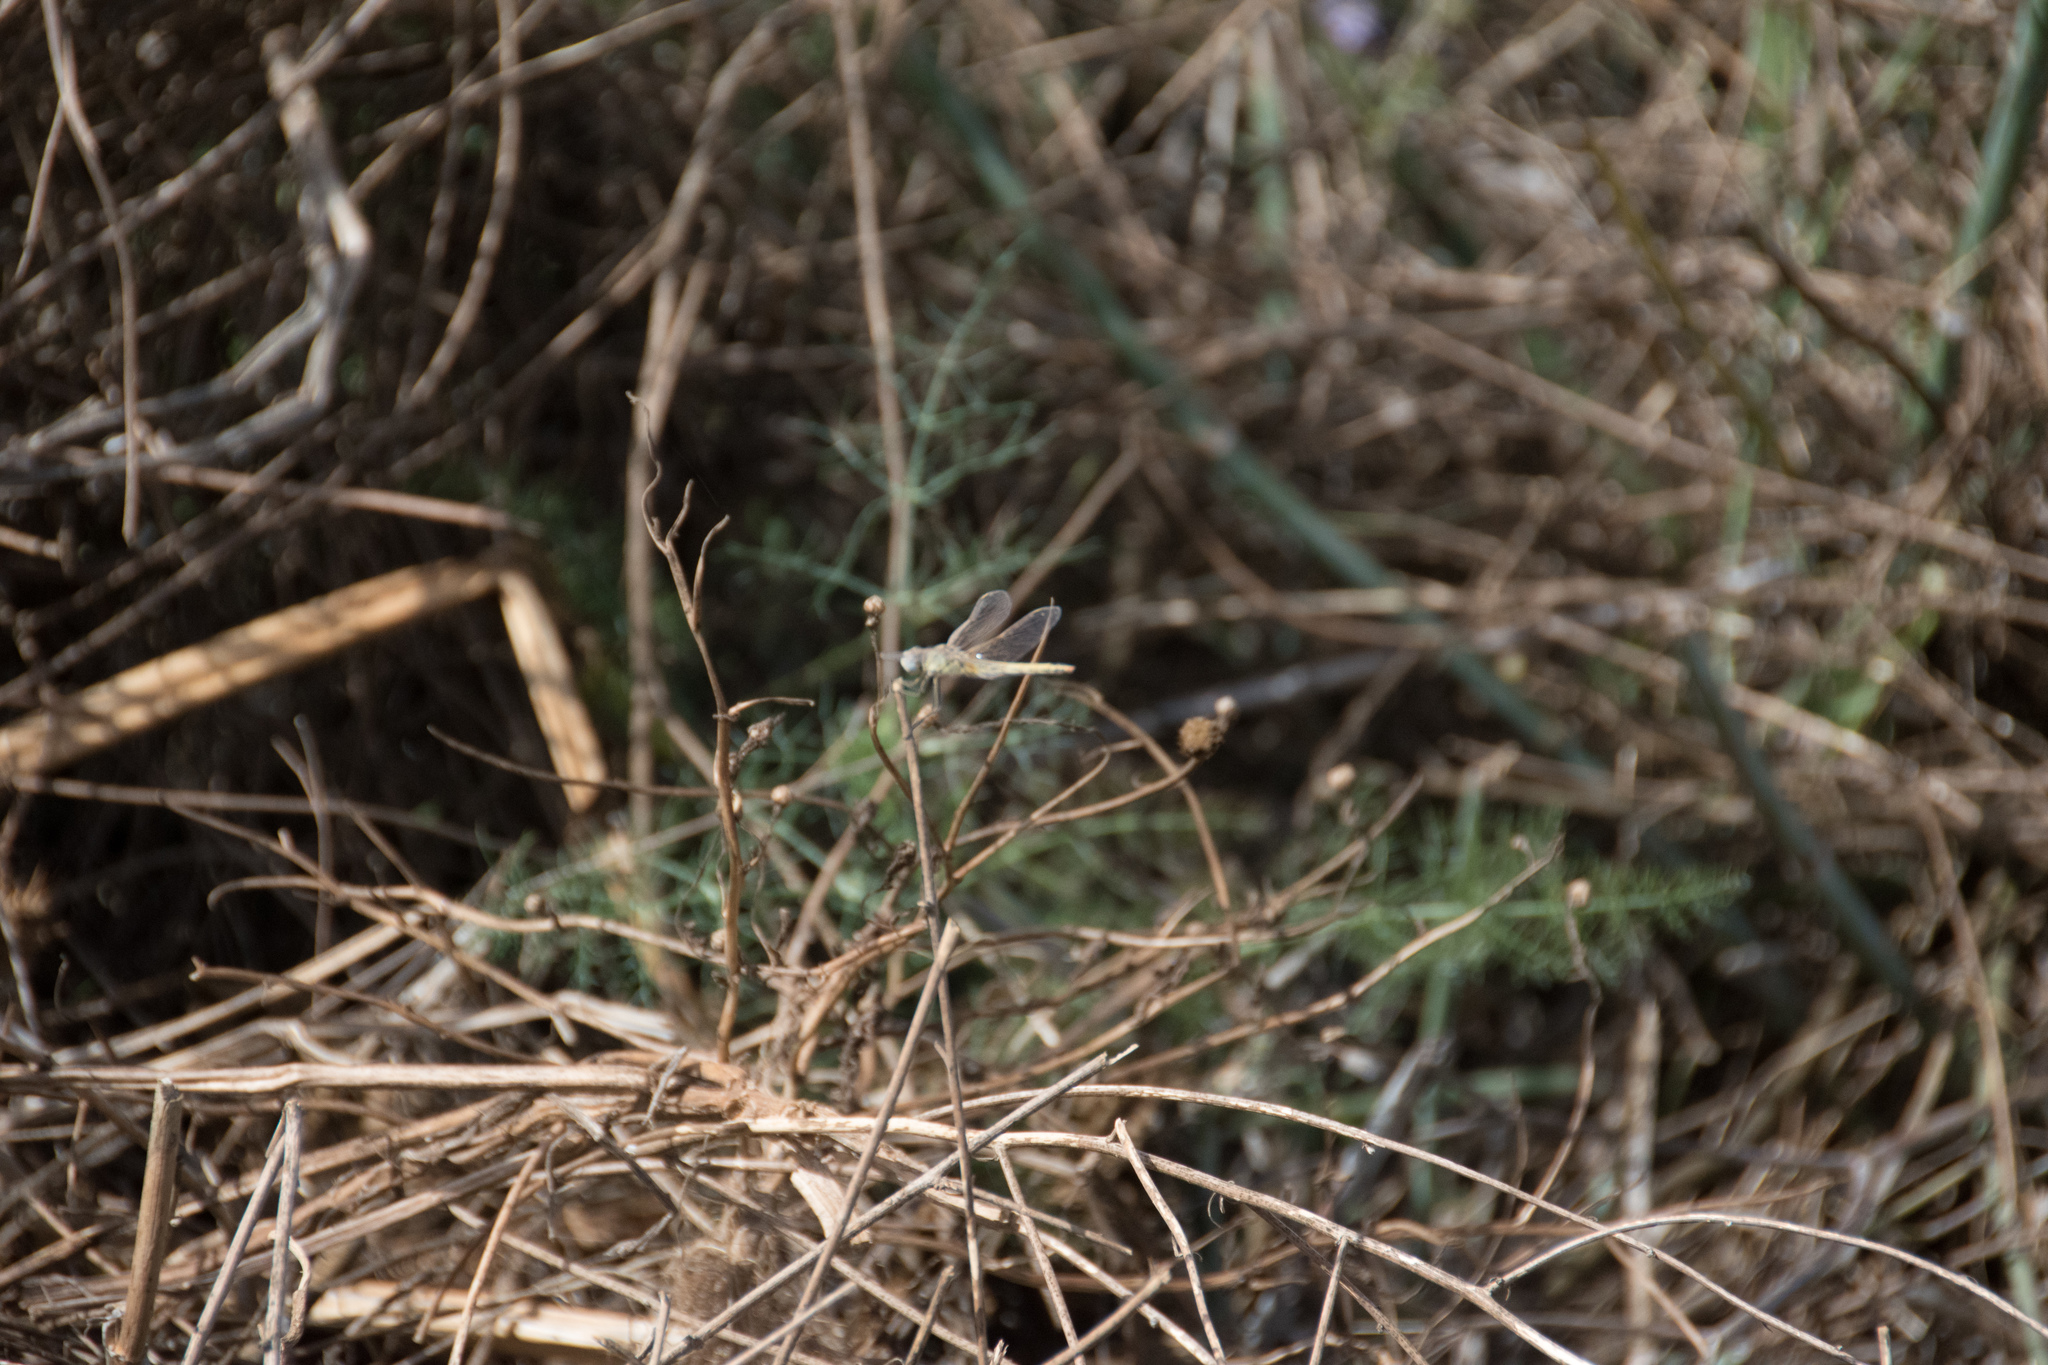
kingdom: Animalia
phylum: Arthropoda
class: Insecta
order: Odonata
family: Libellulidae
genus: Sympetrum
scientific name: Sympetrum fonscolombii
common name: Red-veined darter
